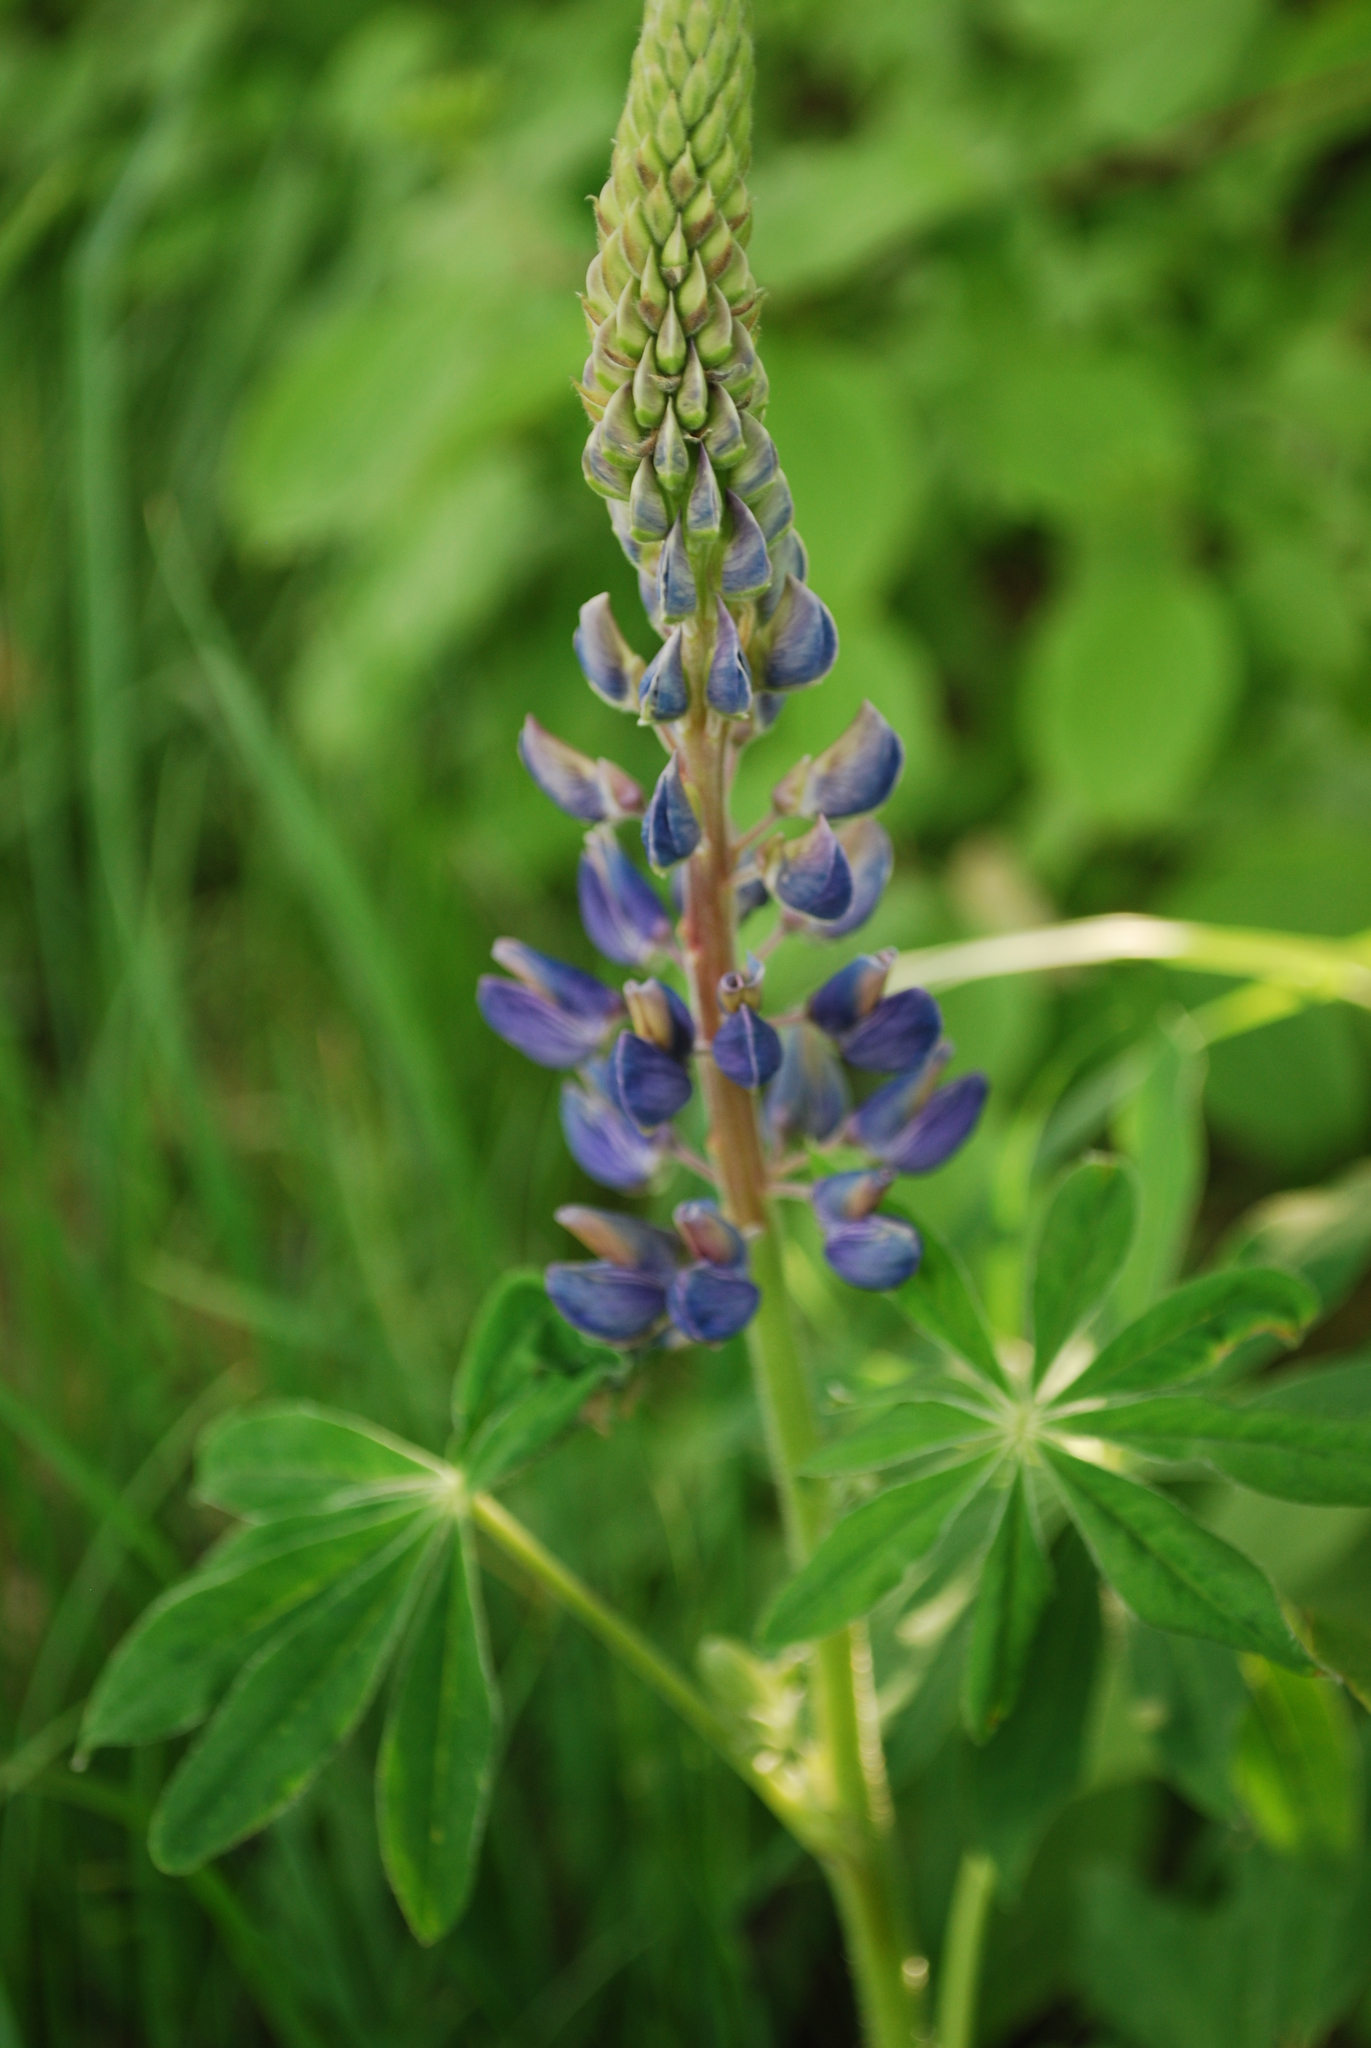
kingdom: Plantae
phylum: Tracheophyta
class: Magnoliopsida
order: Fabales
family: Fabaceae
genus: Lupinus
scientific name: Lupinus polyphyllus
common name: Garden lupin
